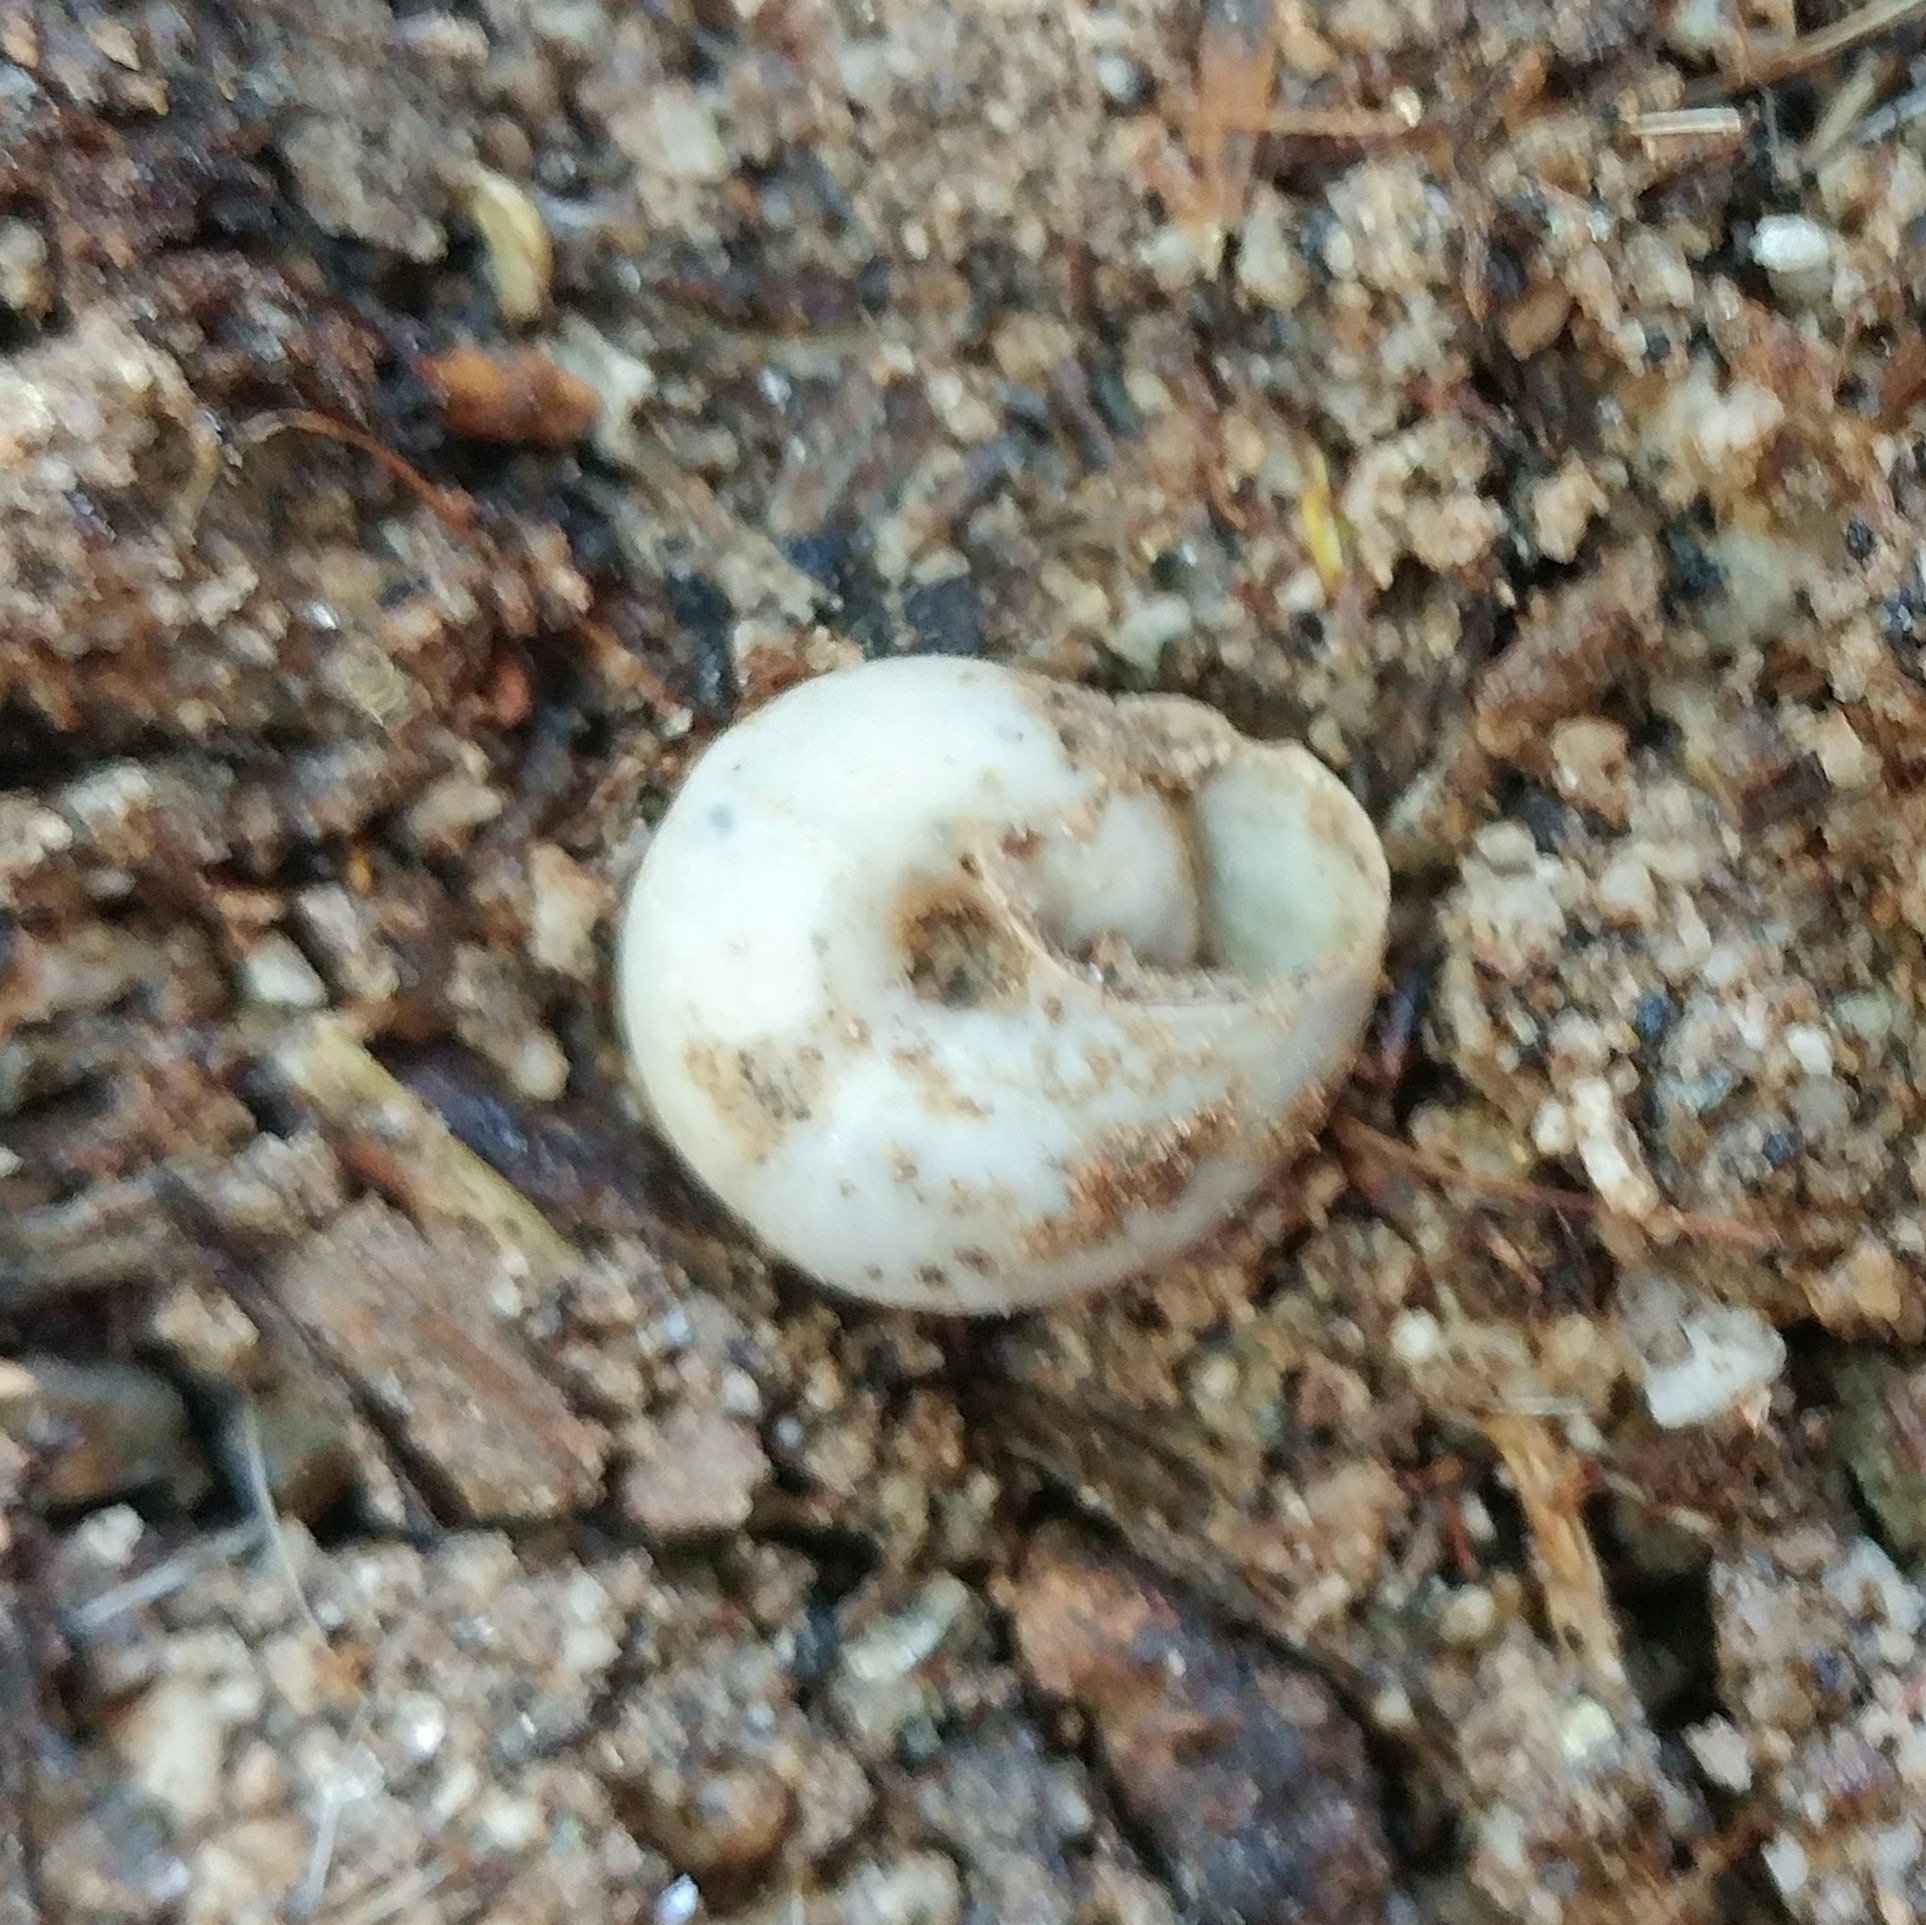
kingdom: Animalia
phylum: Mollusca
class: Gastropoda
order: Stylommatophora
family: Xanthonychidae
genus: Sonorelix
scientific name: Sonorelix borregoensis
